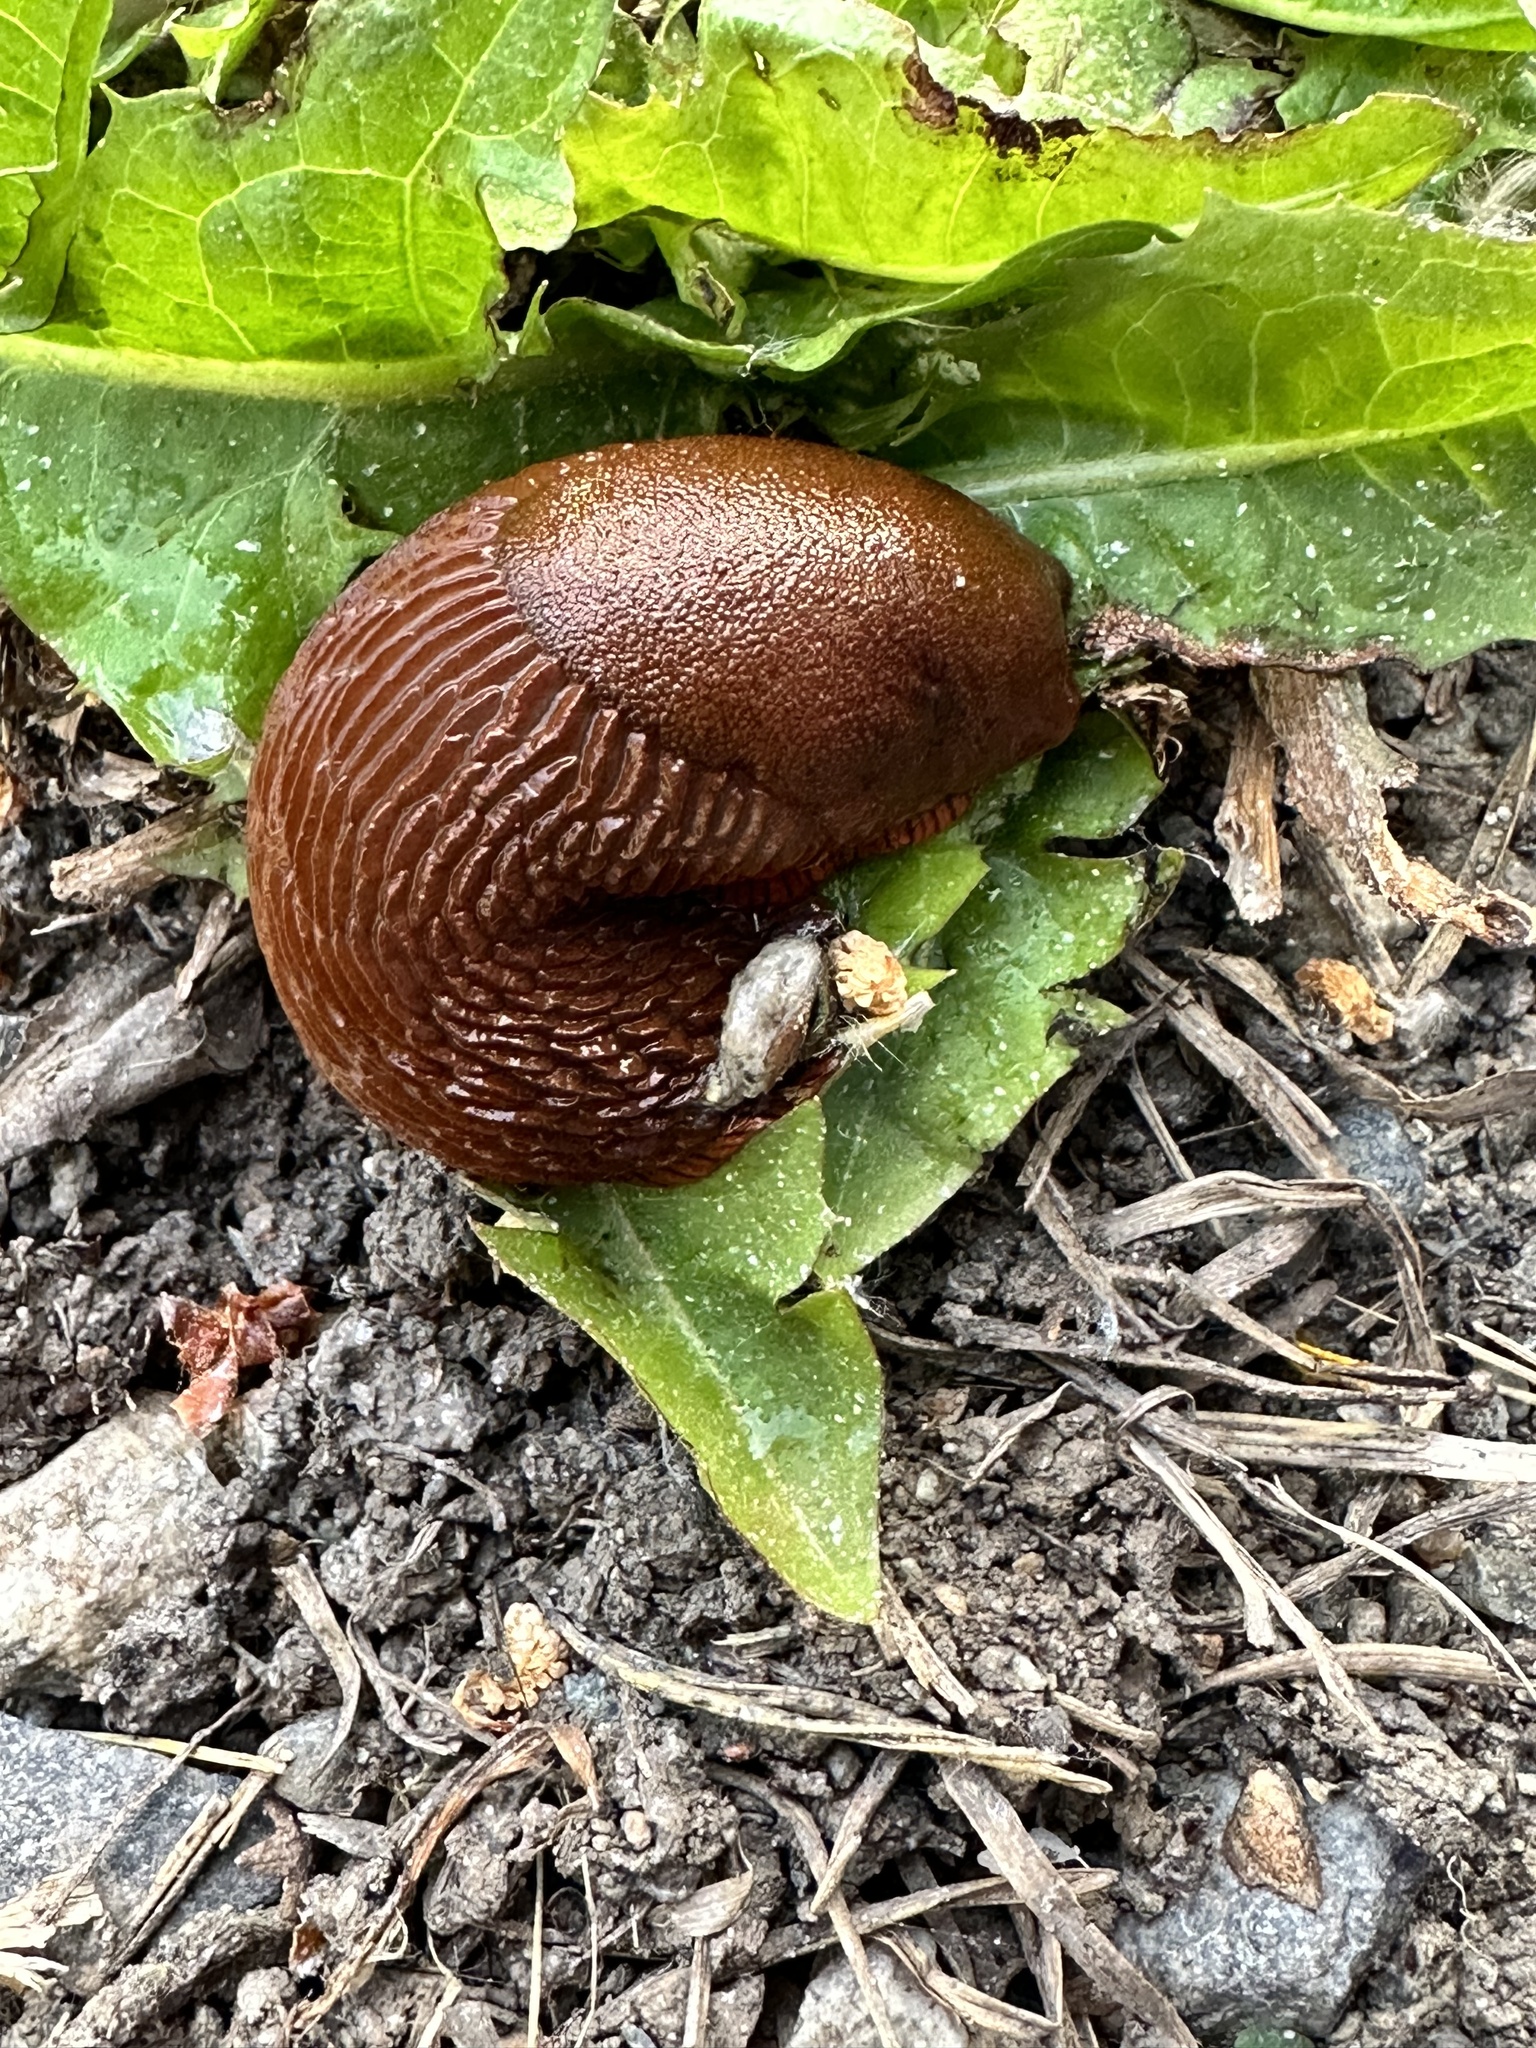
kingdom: Animalia
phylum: Mollusca
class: Gastropoda
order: Stylommatophora
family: Arionidae
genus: Arion
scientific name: Arion
